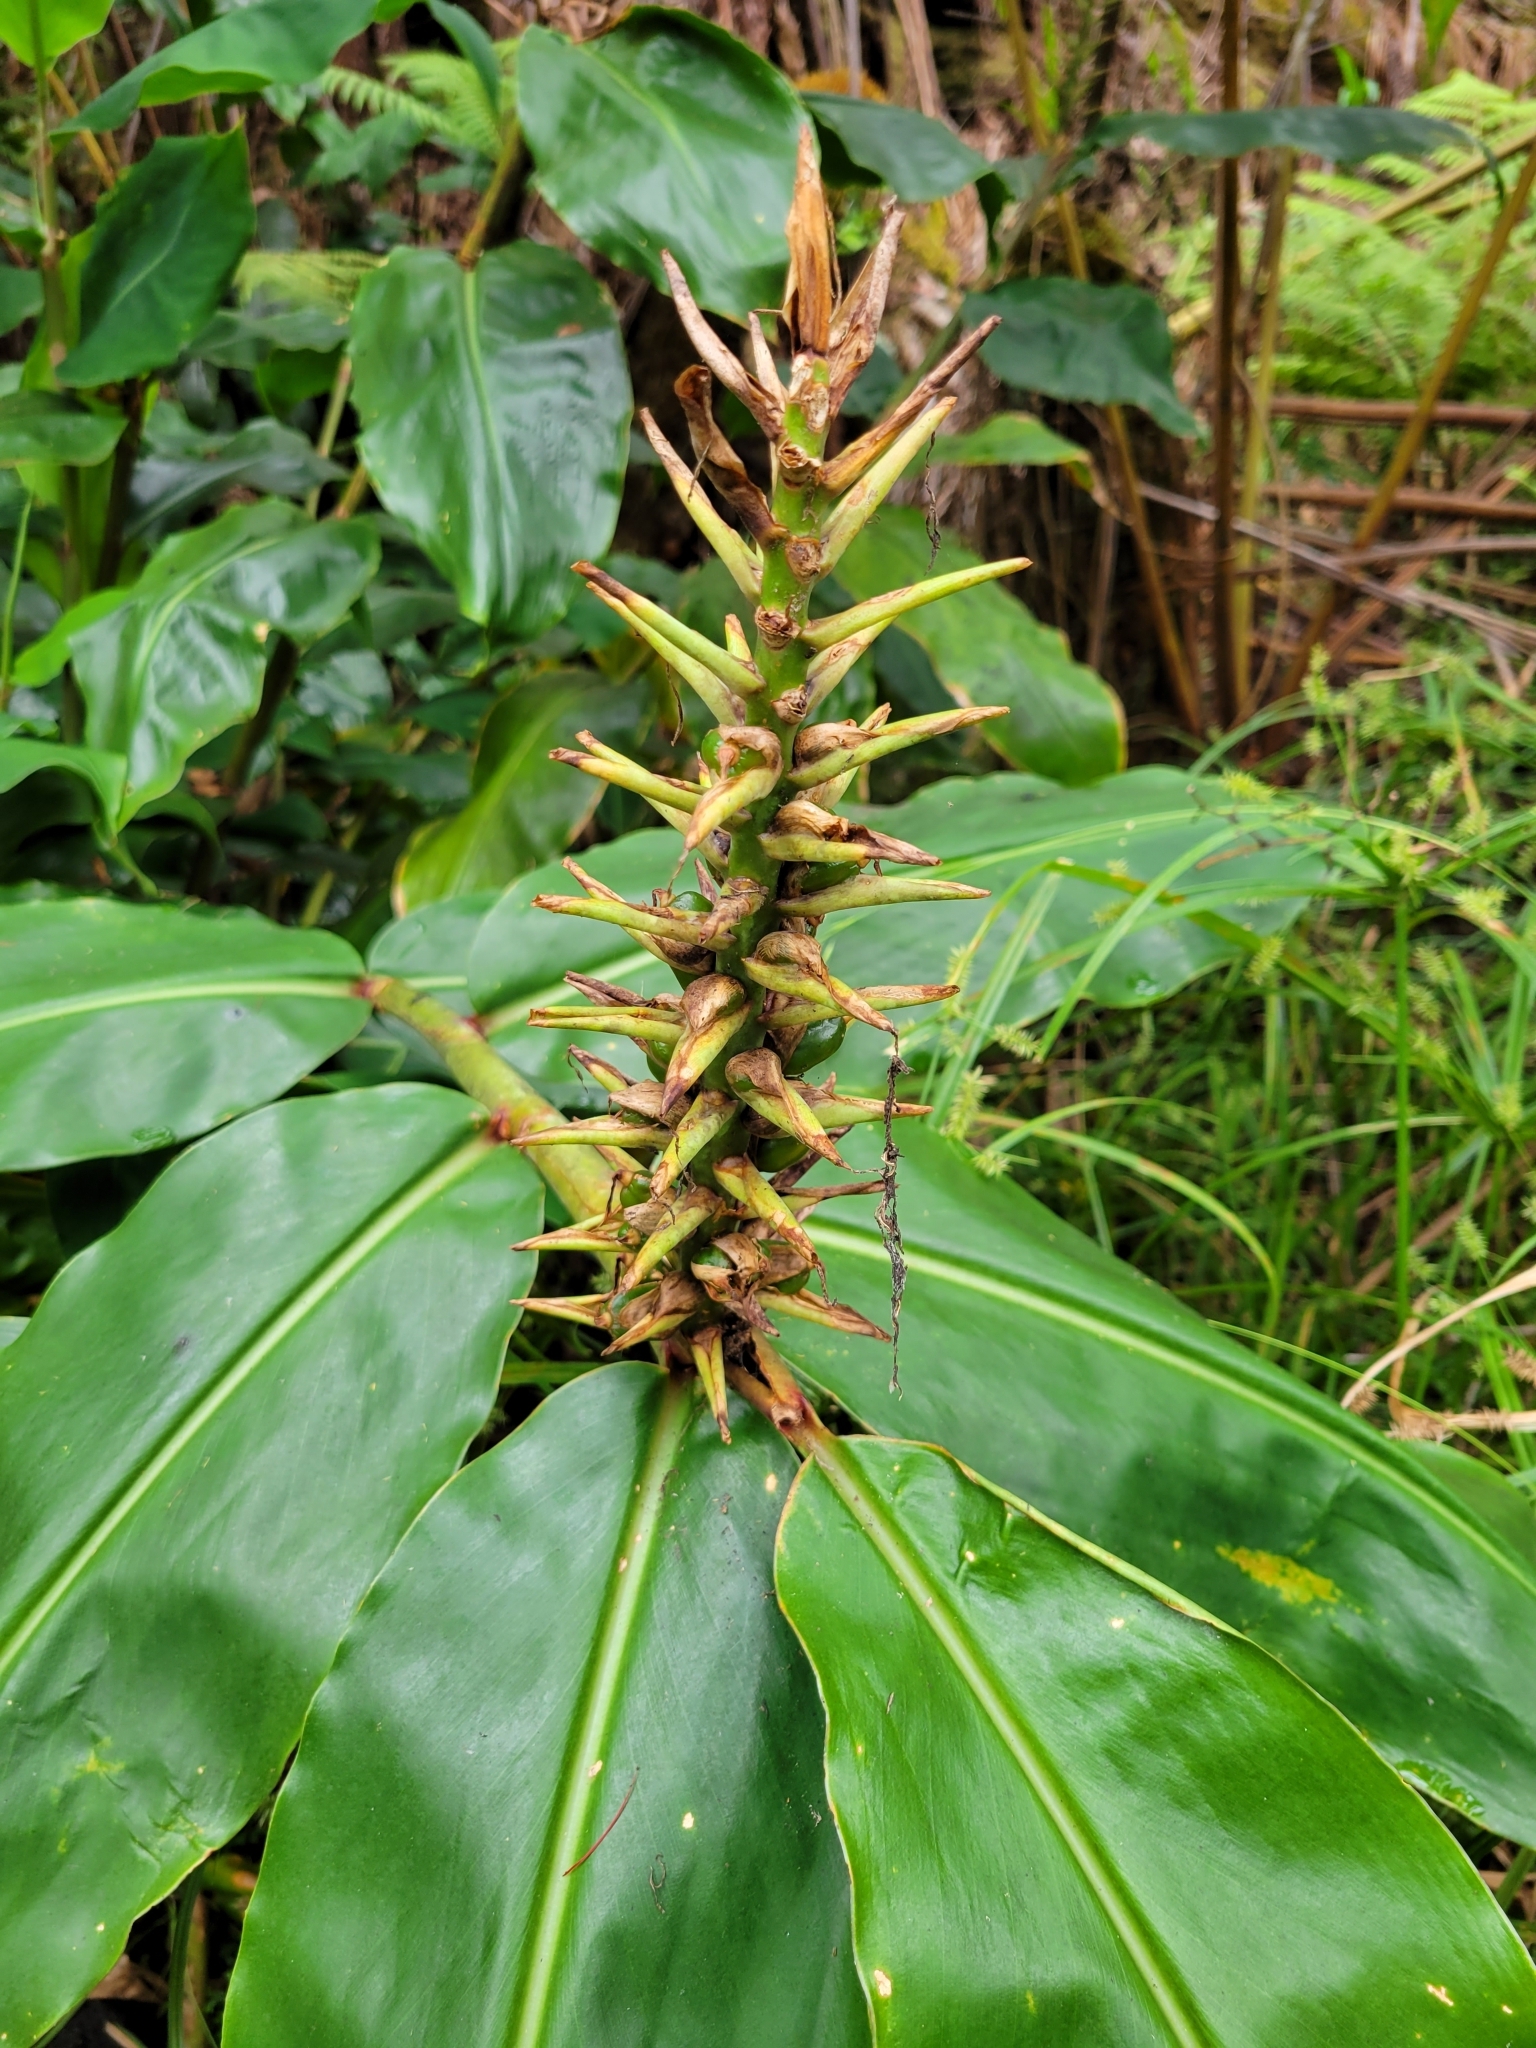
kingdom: Plantae
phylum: Tracheophyta
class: Liliopsida
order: Zingiberales
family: Zingiberaceae
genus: Hedychium
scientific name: Hedychium gardnerianum
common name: Himalayan ginger
